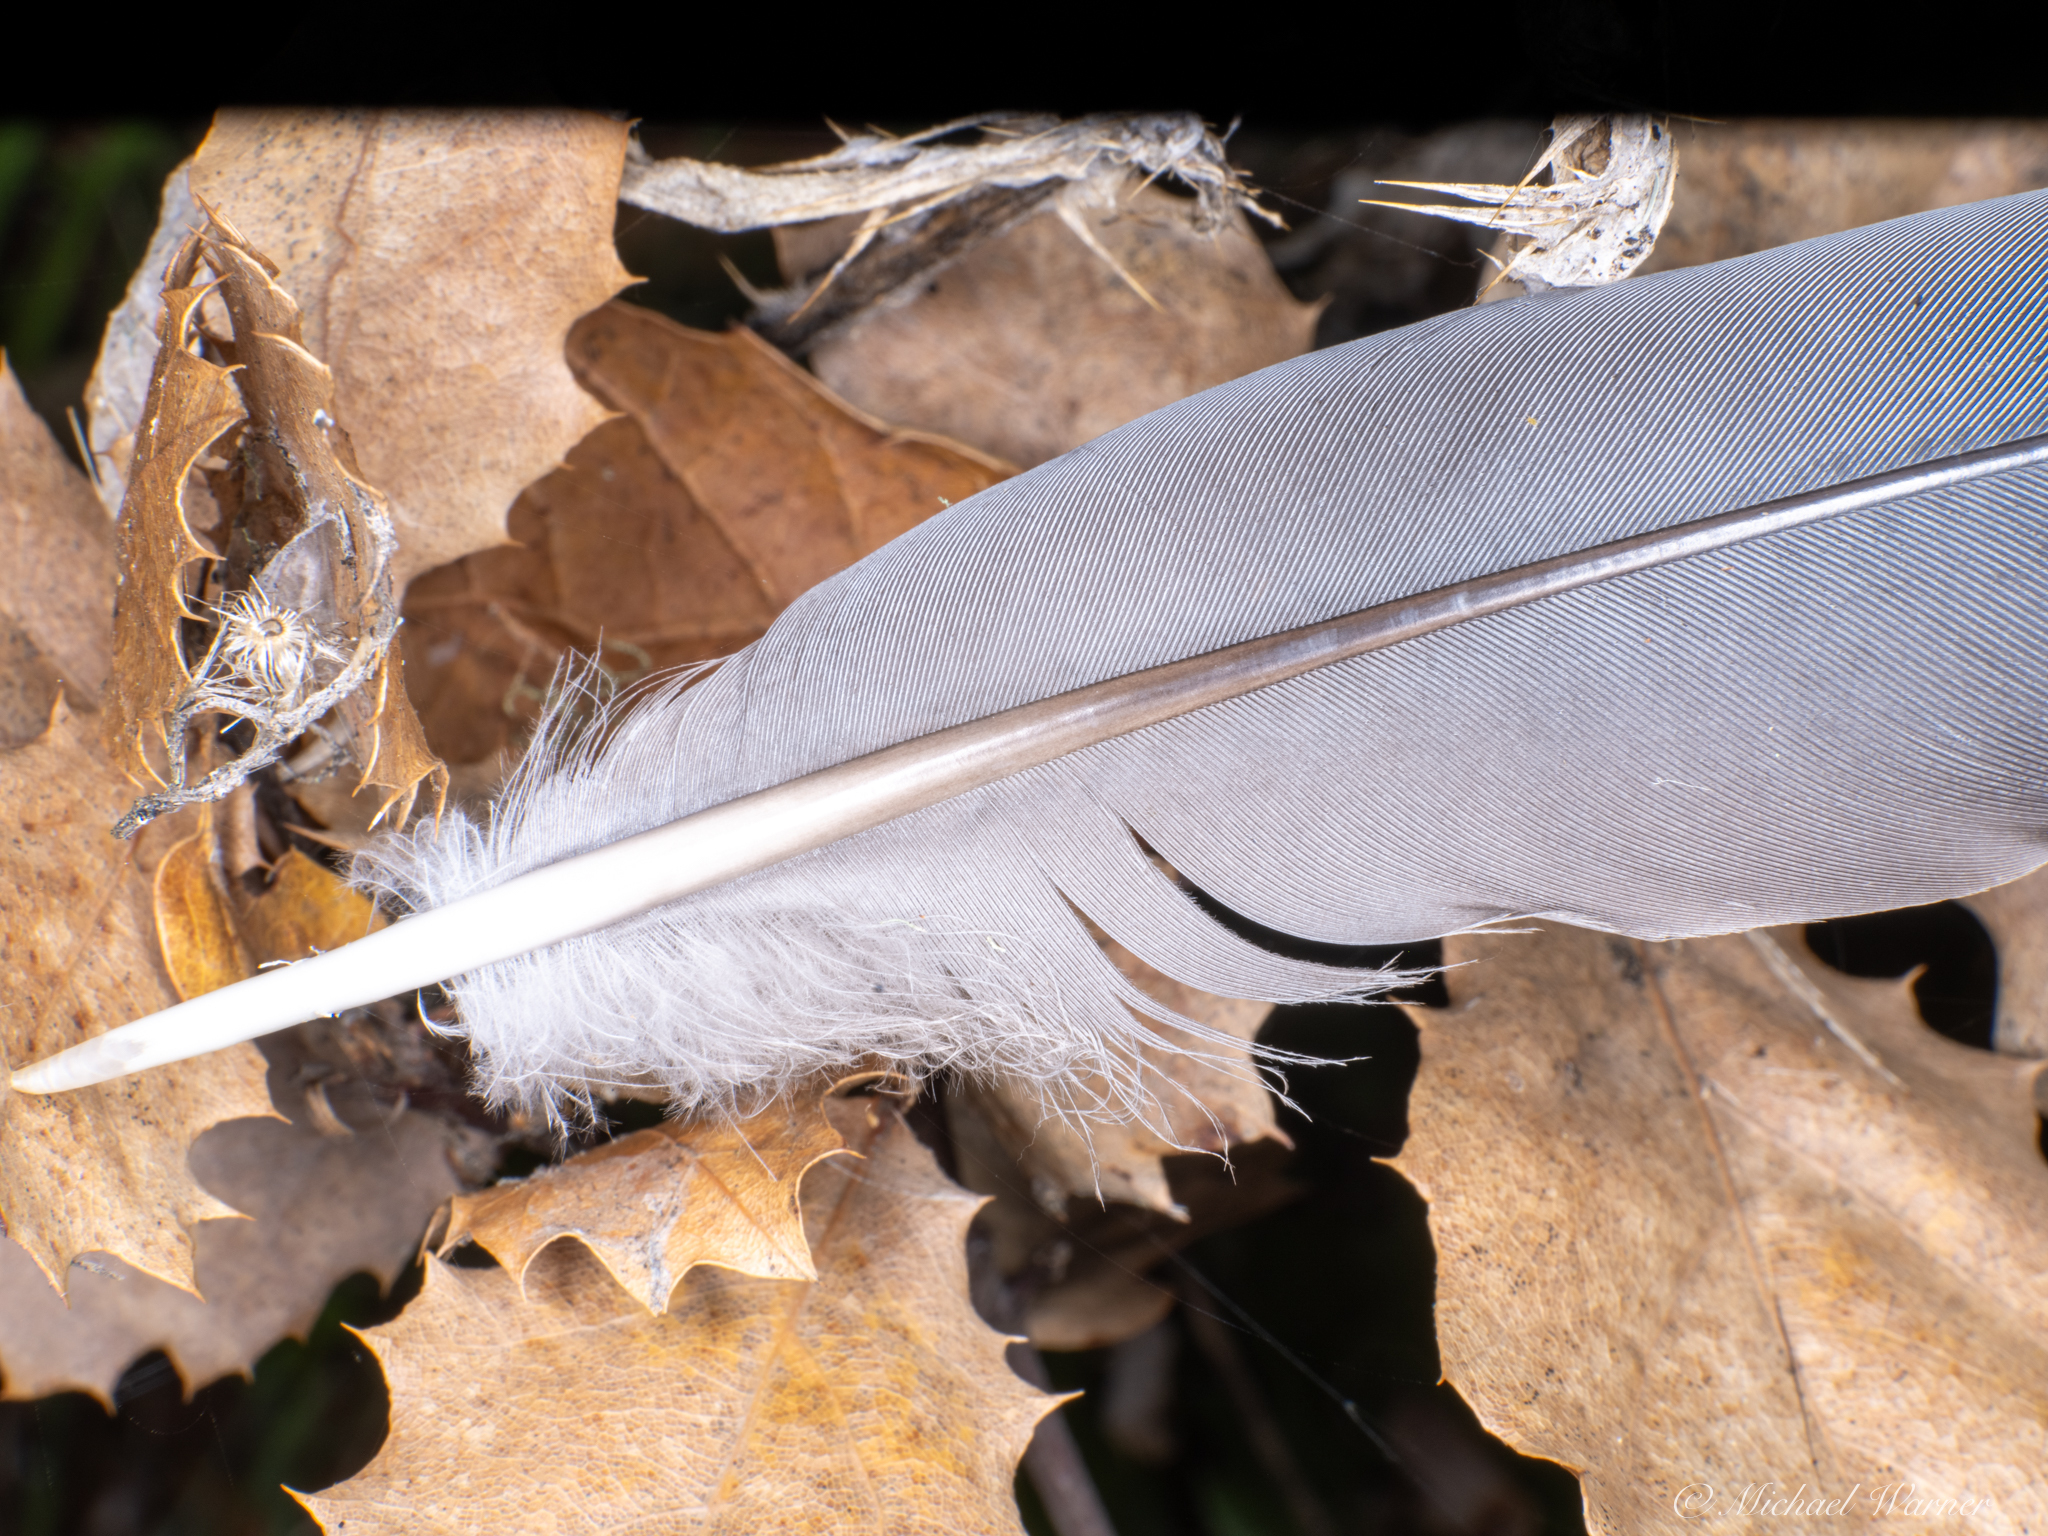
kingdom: Animalia
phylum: Chordata
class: Aves
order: Columbiformes
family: Columbidae
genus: Patagioenas
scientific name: Patagioenas fasciata
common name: Band-tailed pigeon
